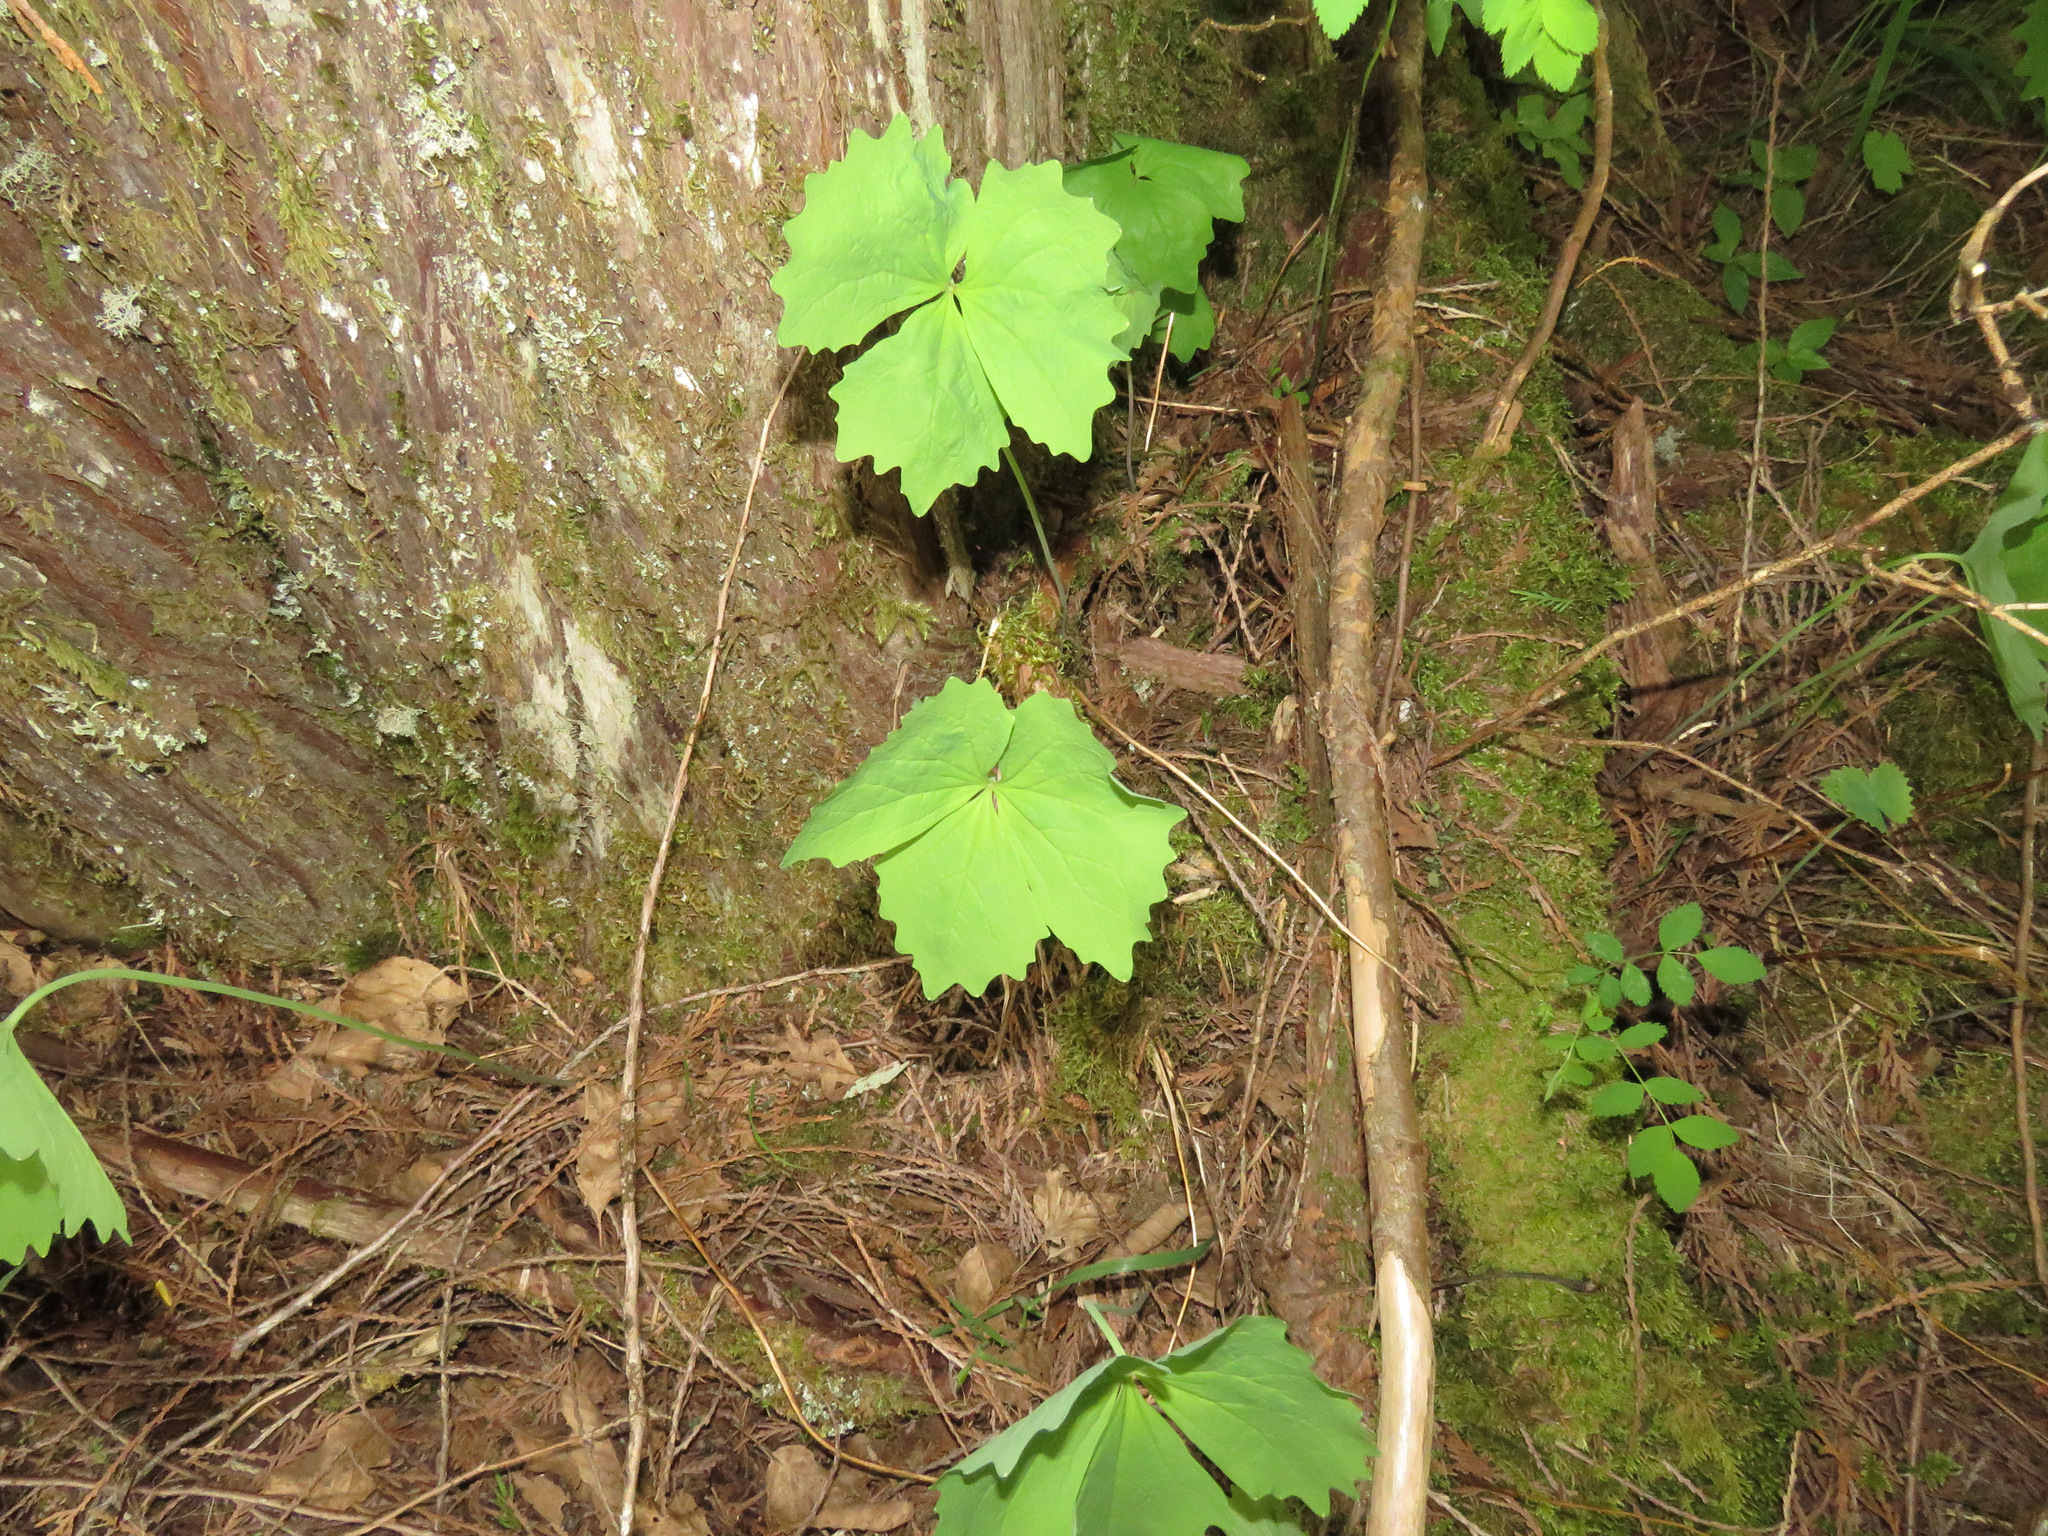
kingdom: Plantae
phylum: Tracheophyta
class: Magnoliopsida
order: Ranunculales
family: Berberidaceae
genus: Achlys
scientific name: Achlys triphylla
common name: Vanilla-leaf
